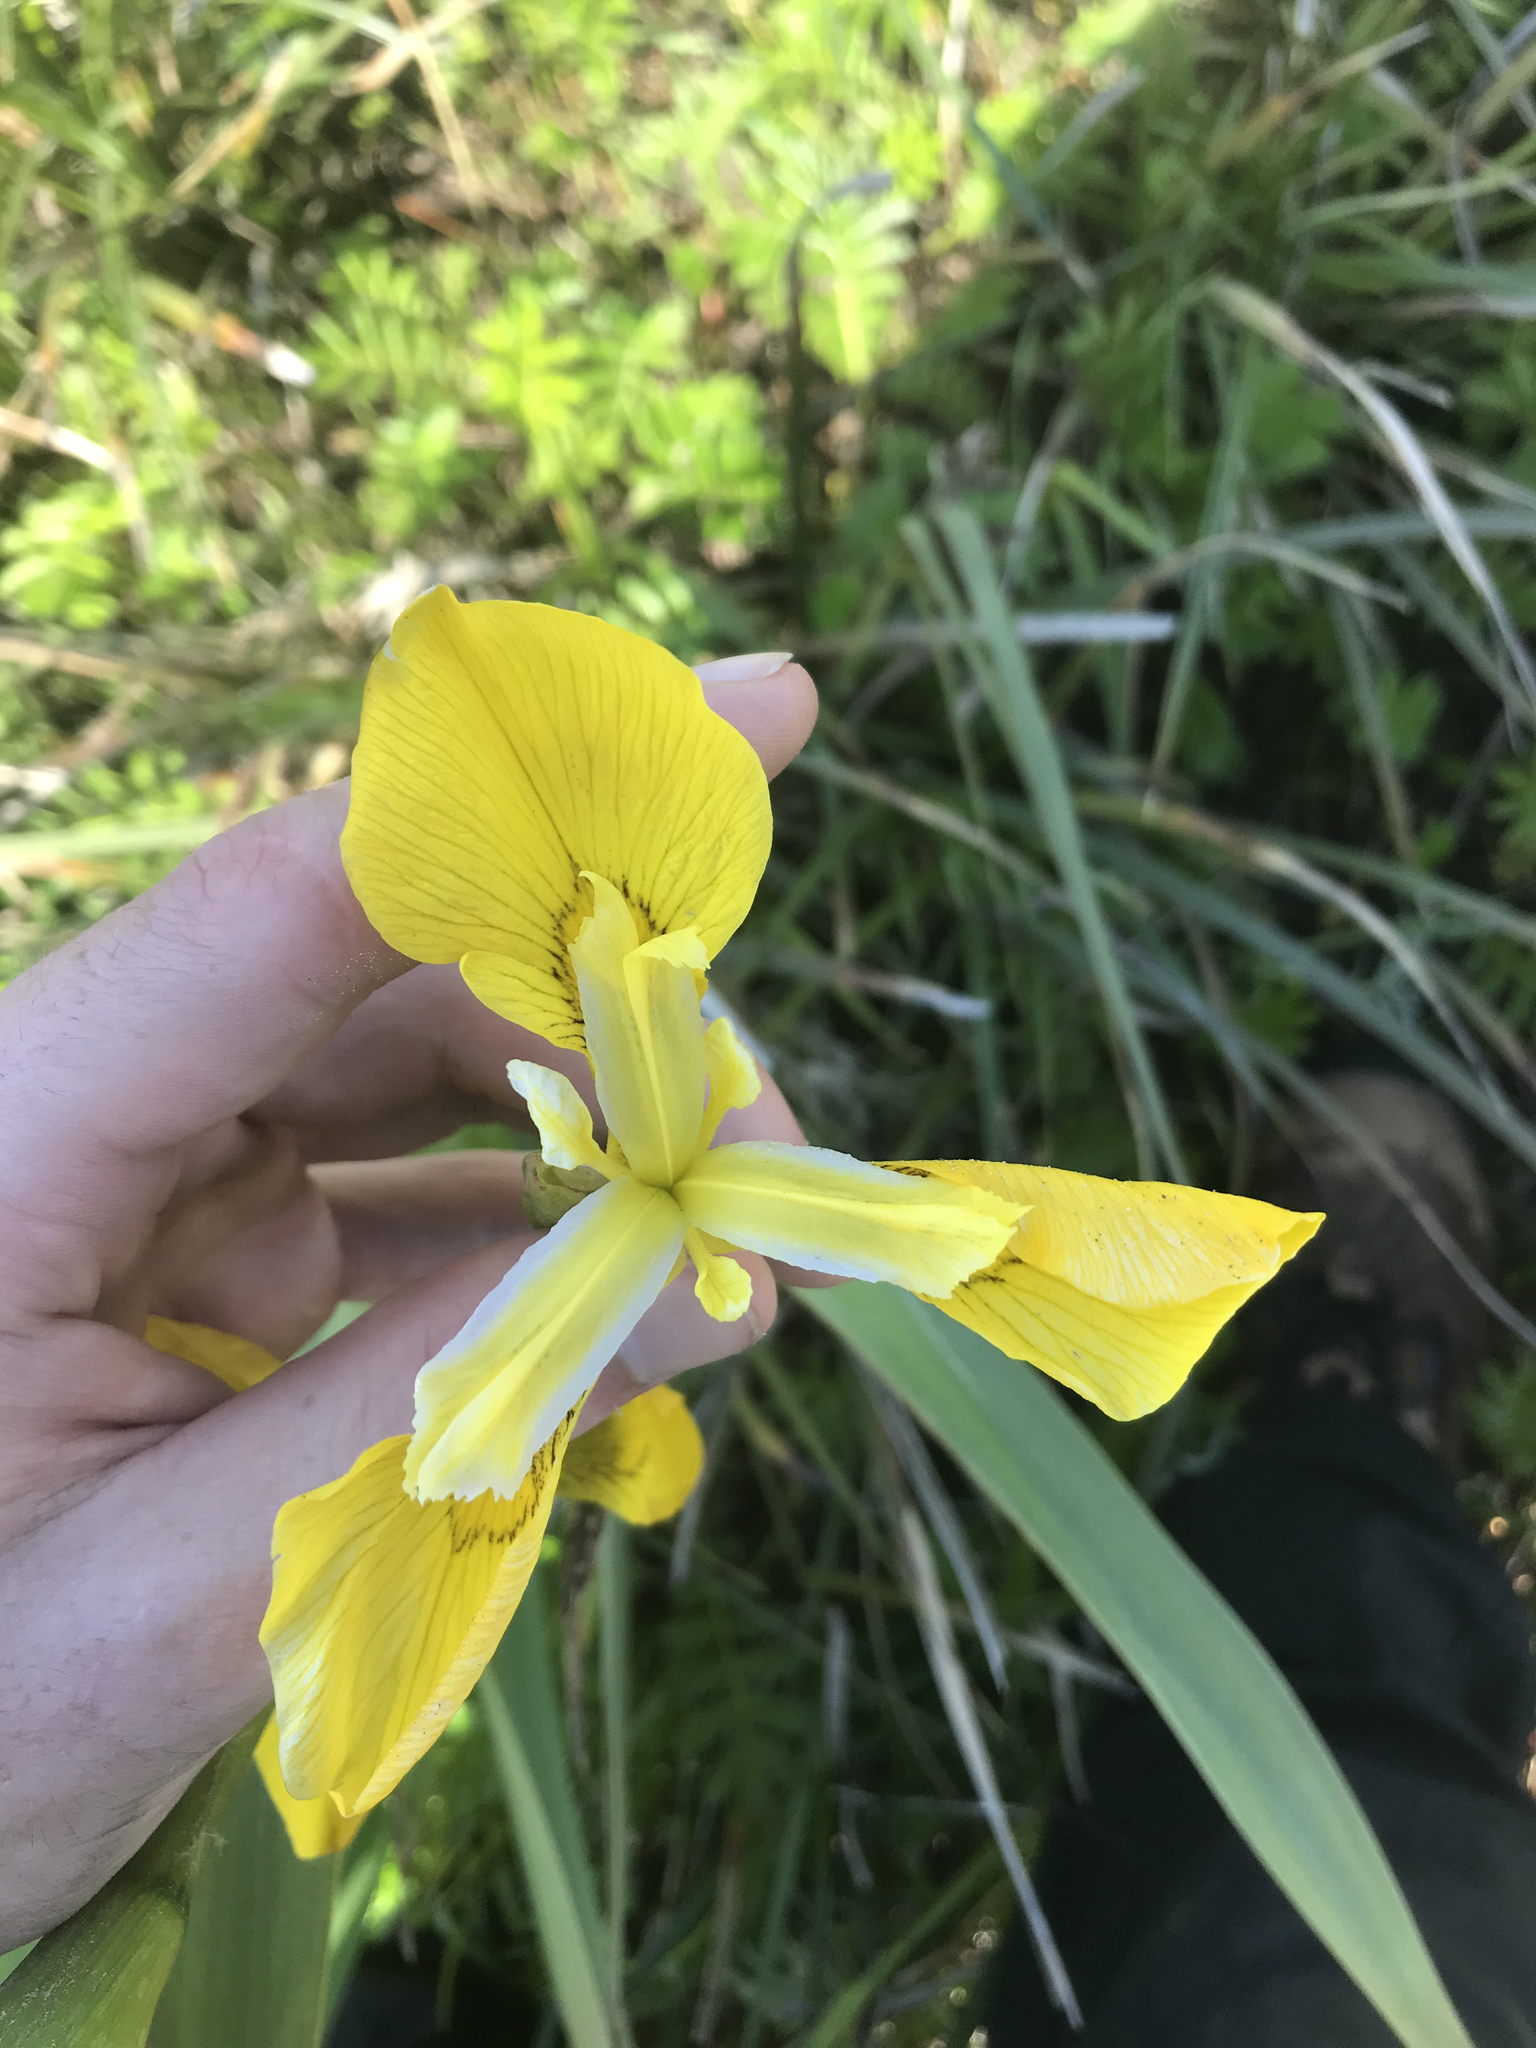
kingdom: Plantae
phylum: Tracheophyta
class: Liliopsida
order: Asparagales
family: Iridaceae
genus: Iris
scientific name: Iris pseudacorus
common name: Yellow flag
